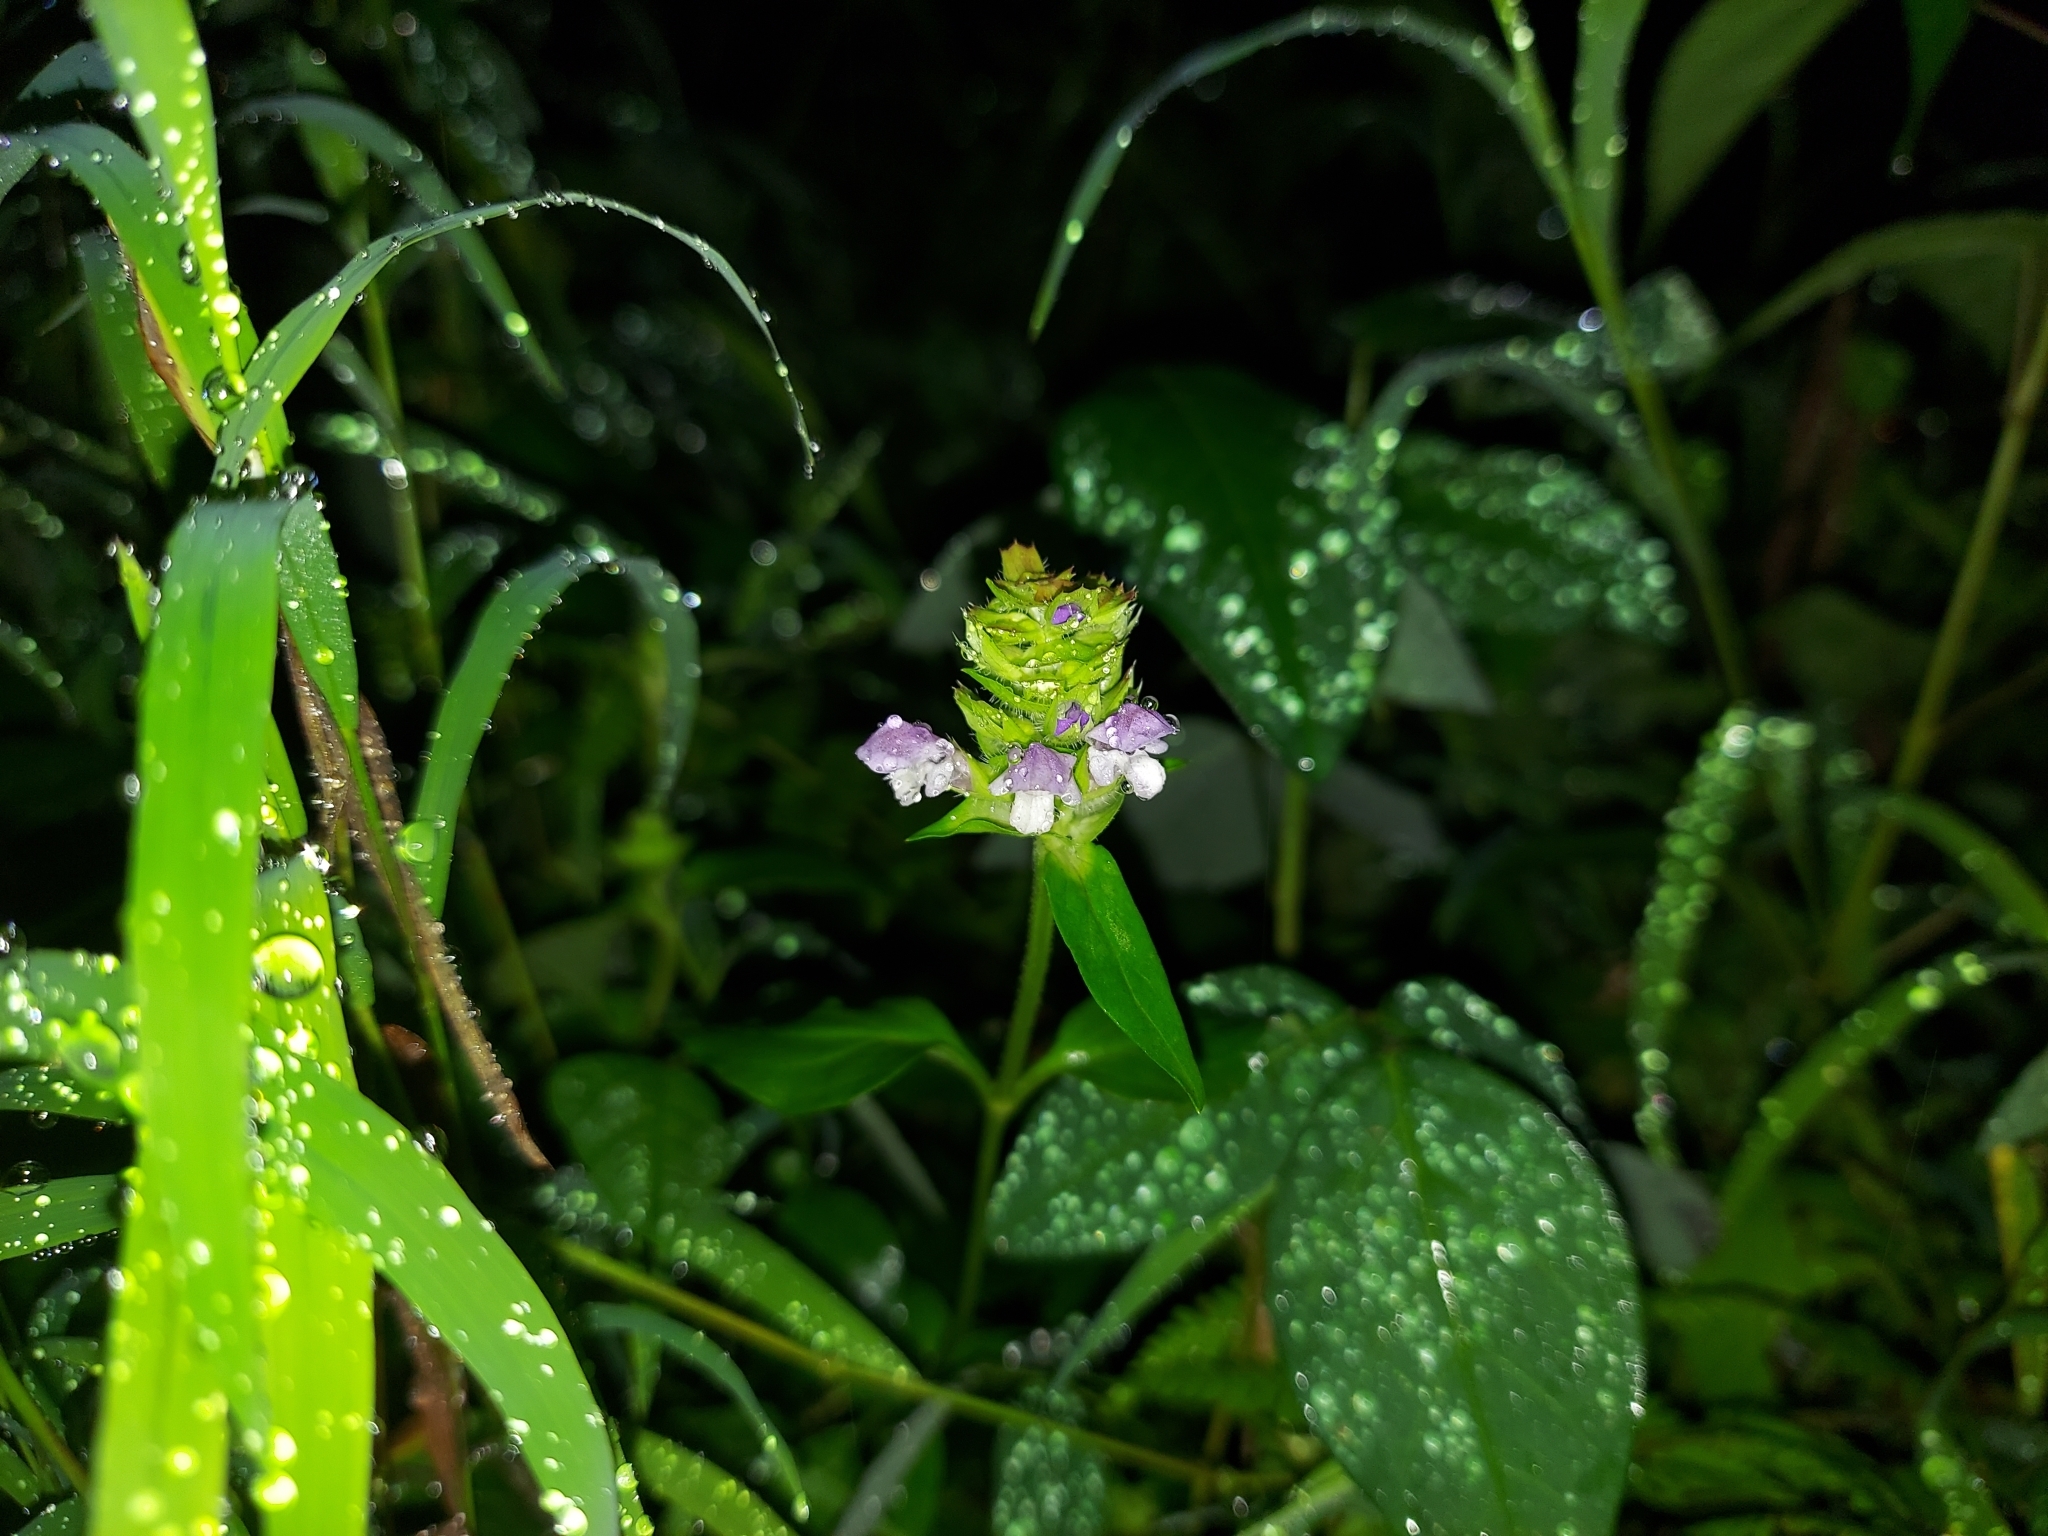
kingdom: Plantae
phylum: Tracheophyta
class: Magnoliopsida
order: Lamiales
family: Lamiaceae
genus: Prunella
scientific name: Prunella vulgaris
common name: Heal-all
